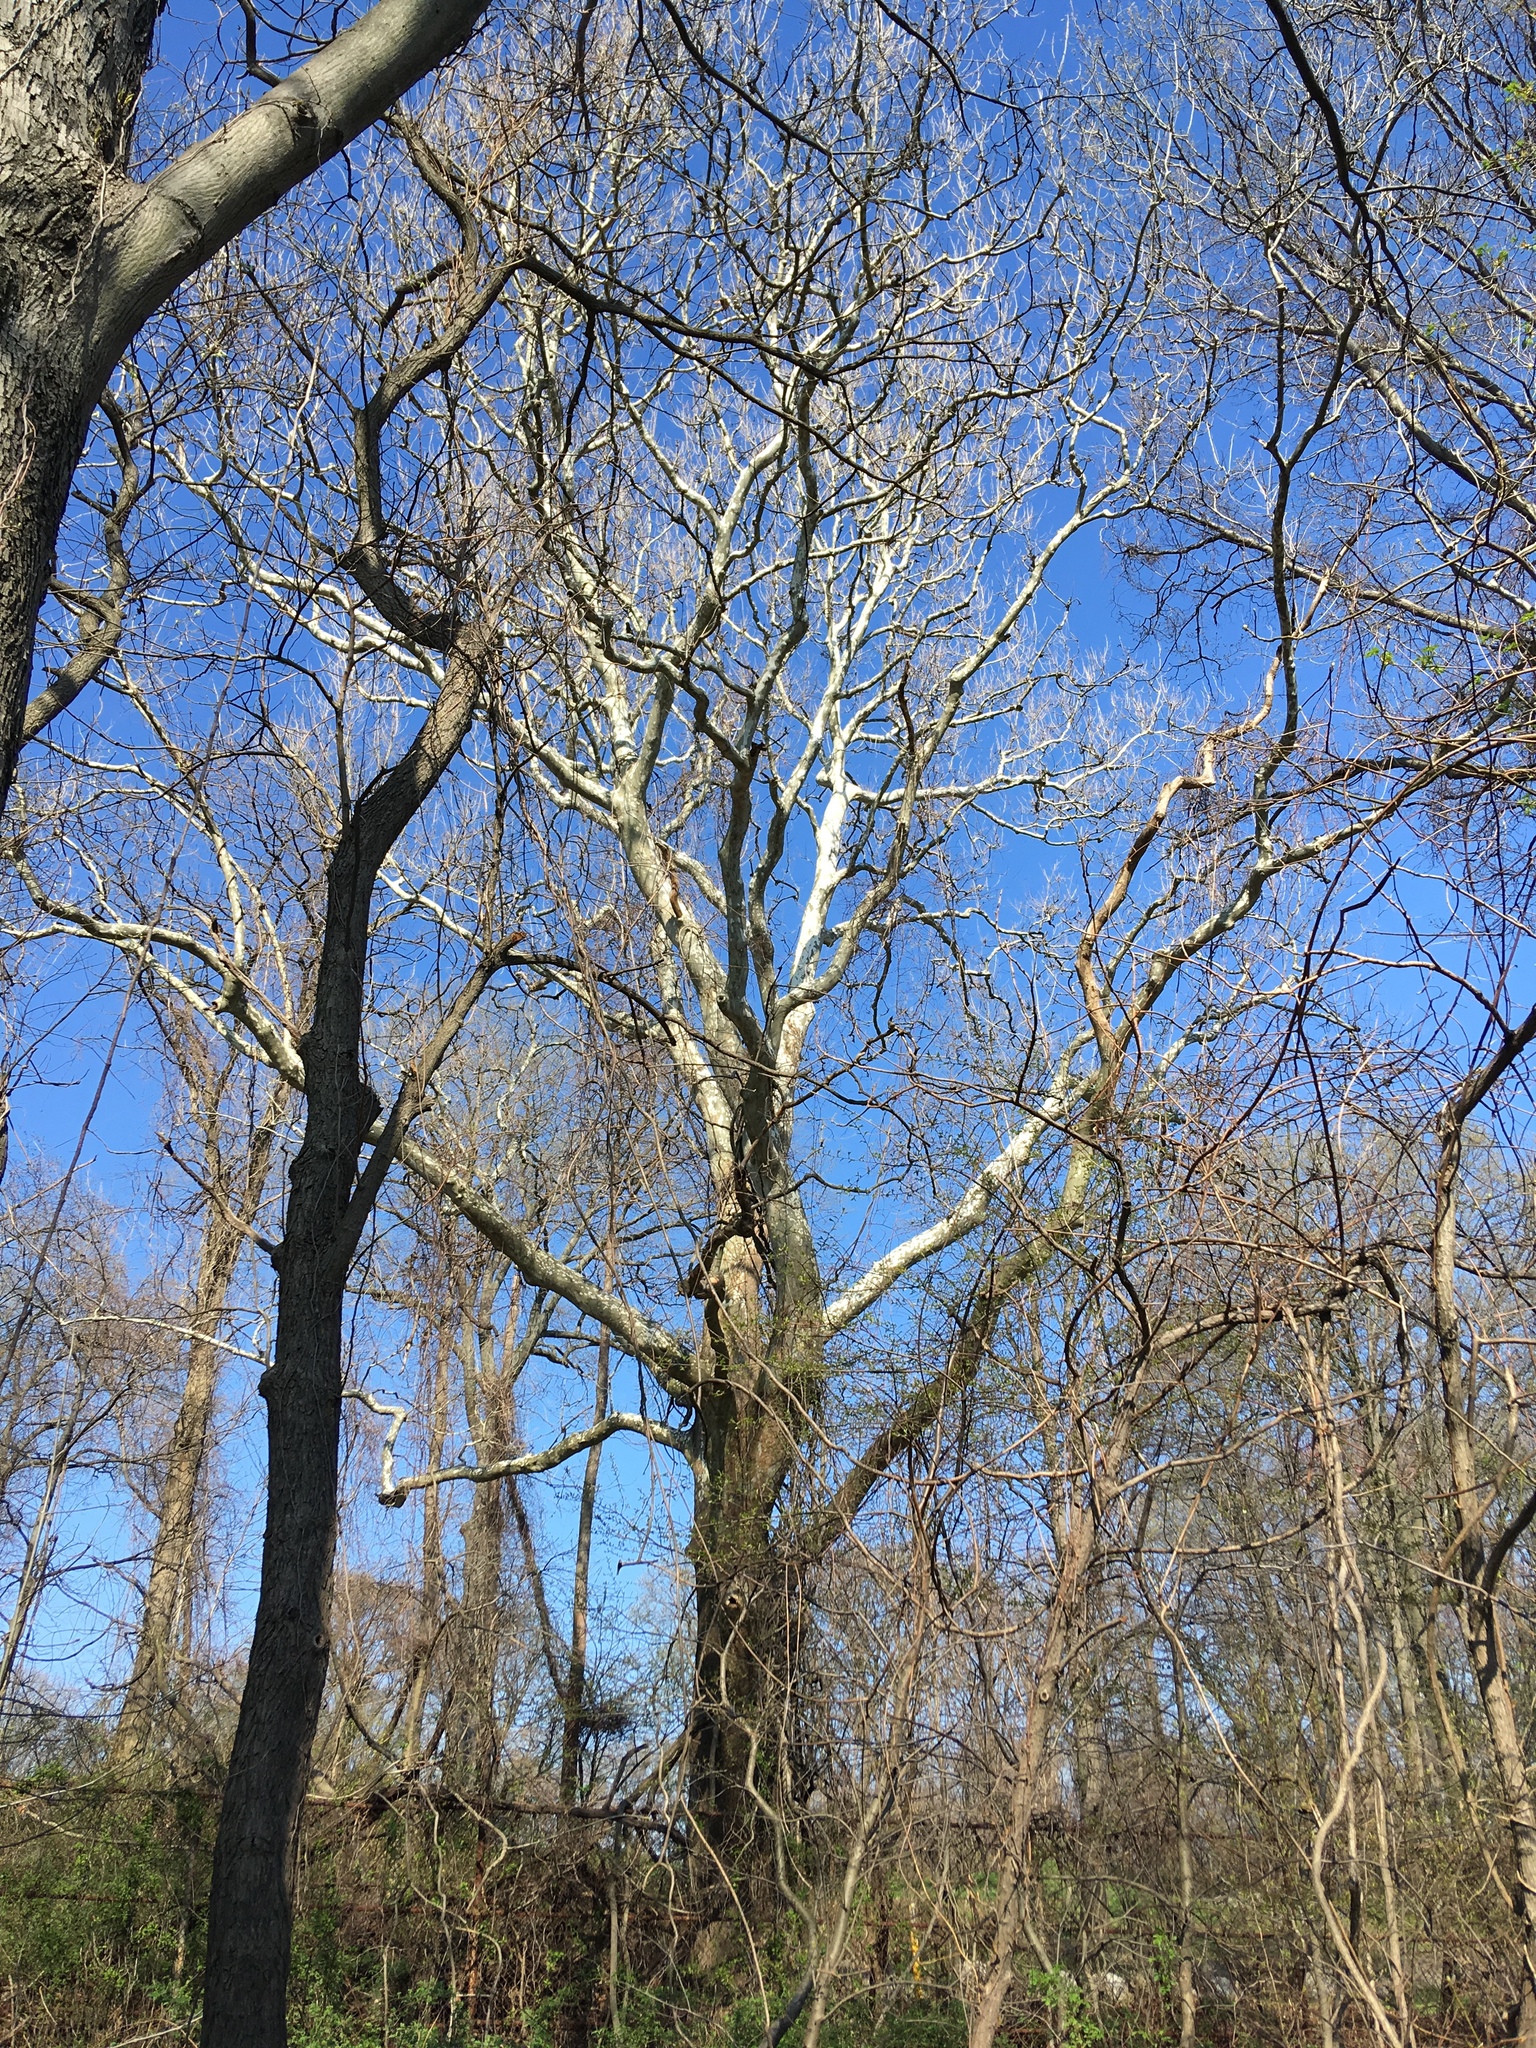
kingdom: Plantae
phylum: Tracheophyta
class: Magnoliopsida
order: Proteales
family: Platanaceae
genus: Platanus
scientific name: Platanus occidentalis
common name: American sycamore
